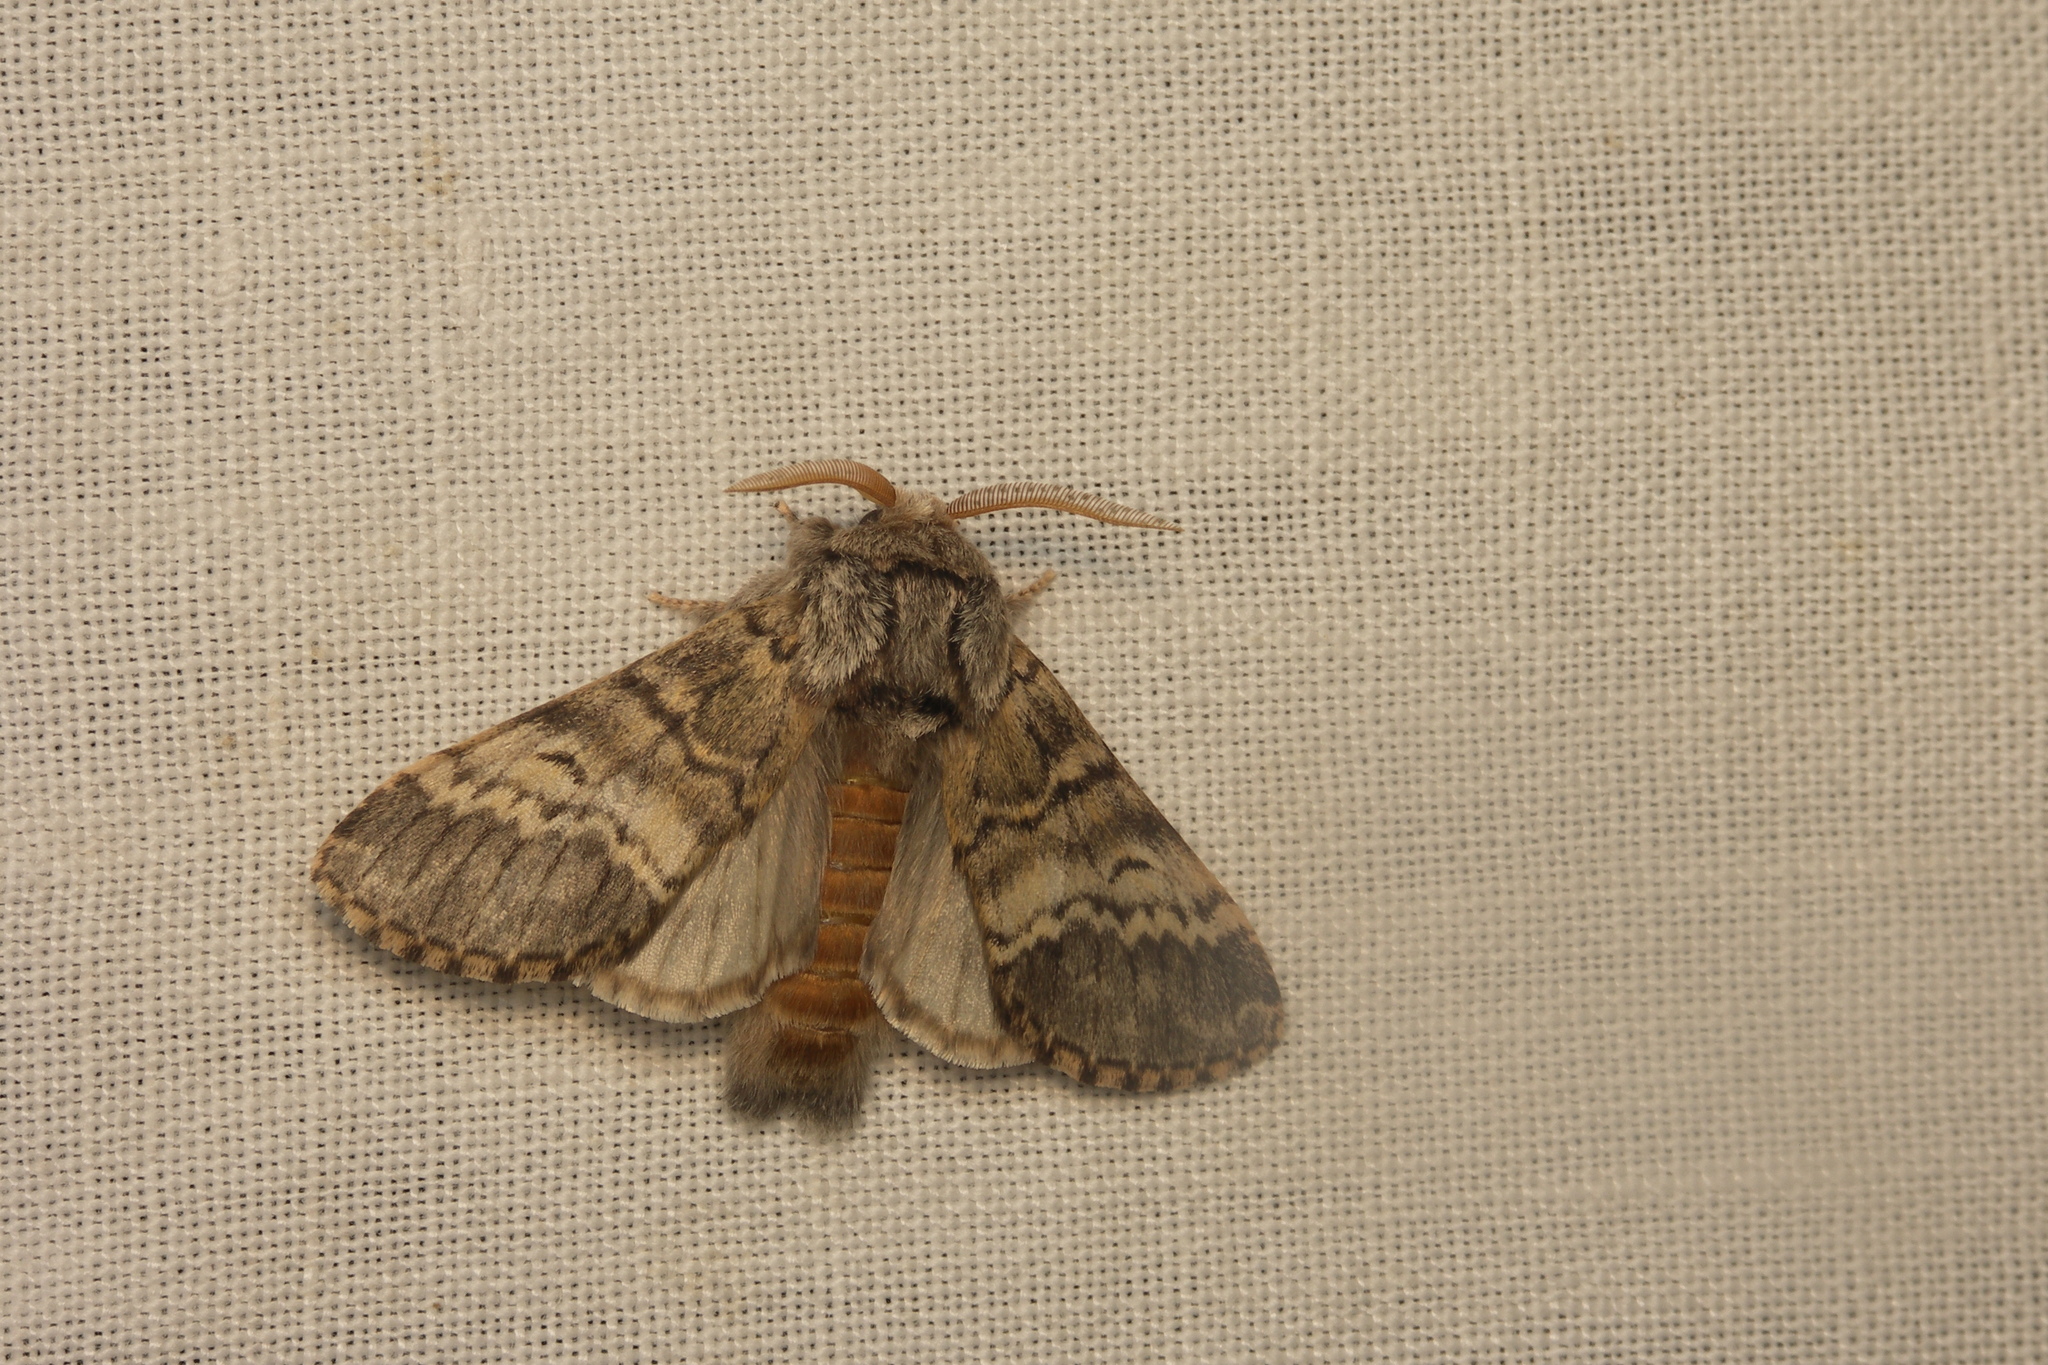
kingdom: Animalia
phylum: Arthropoda
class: Insecta
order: Lepidoptera
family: Notodontidae
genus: Drymonia
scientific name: Drymonia ruficornis
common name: Lunar marbled brown
